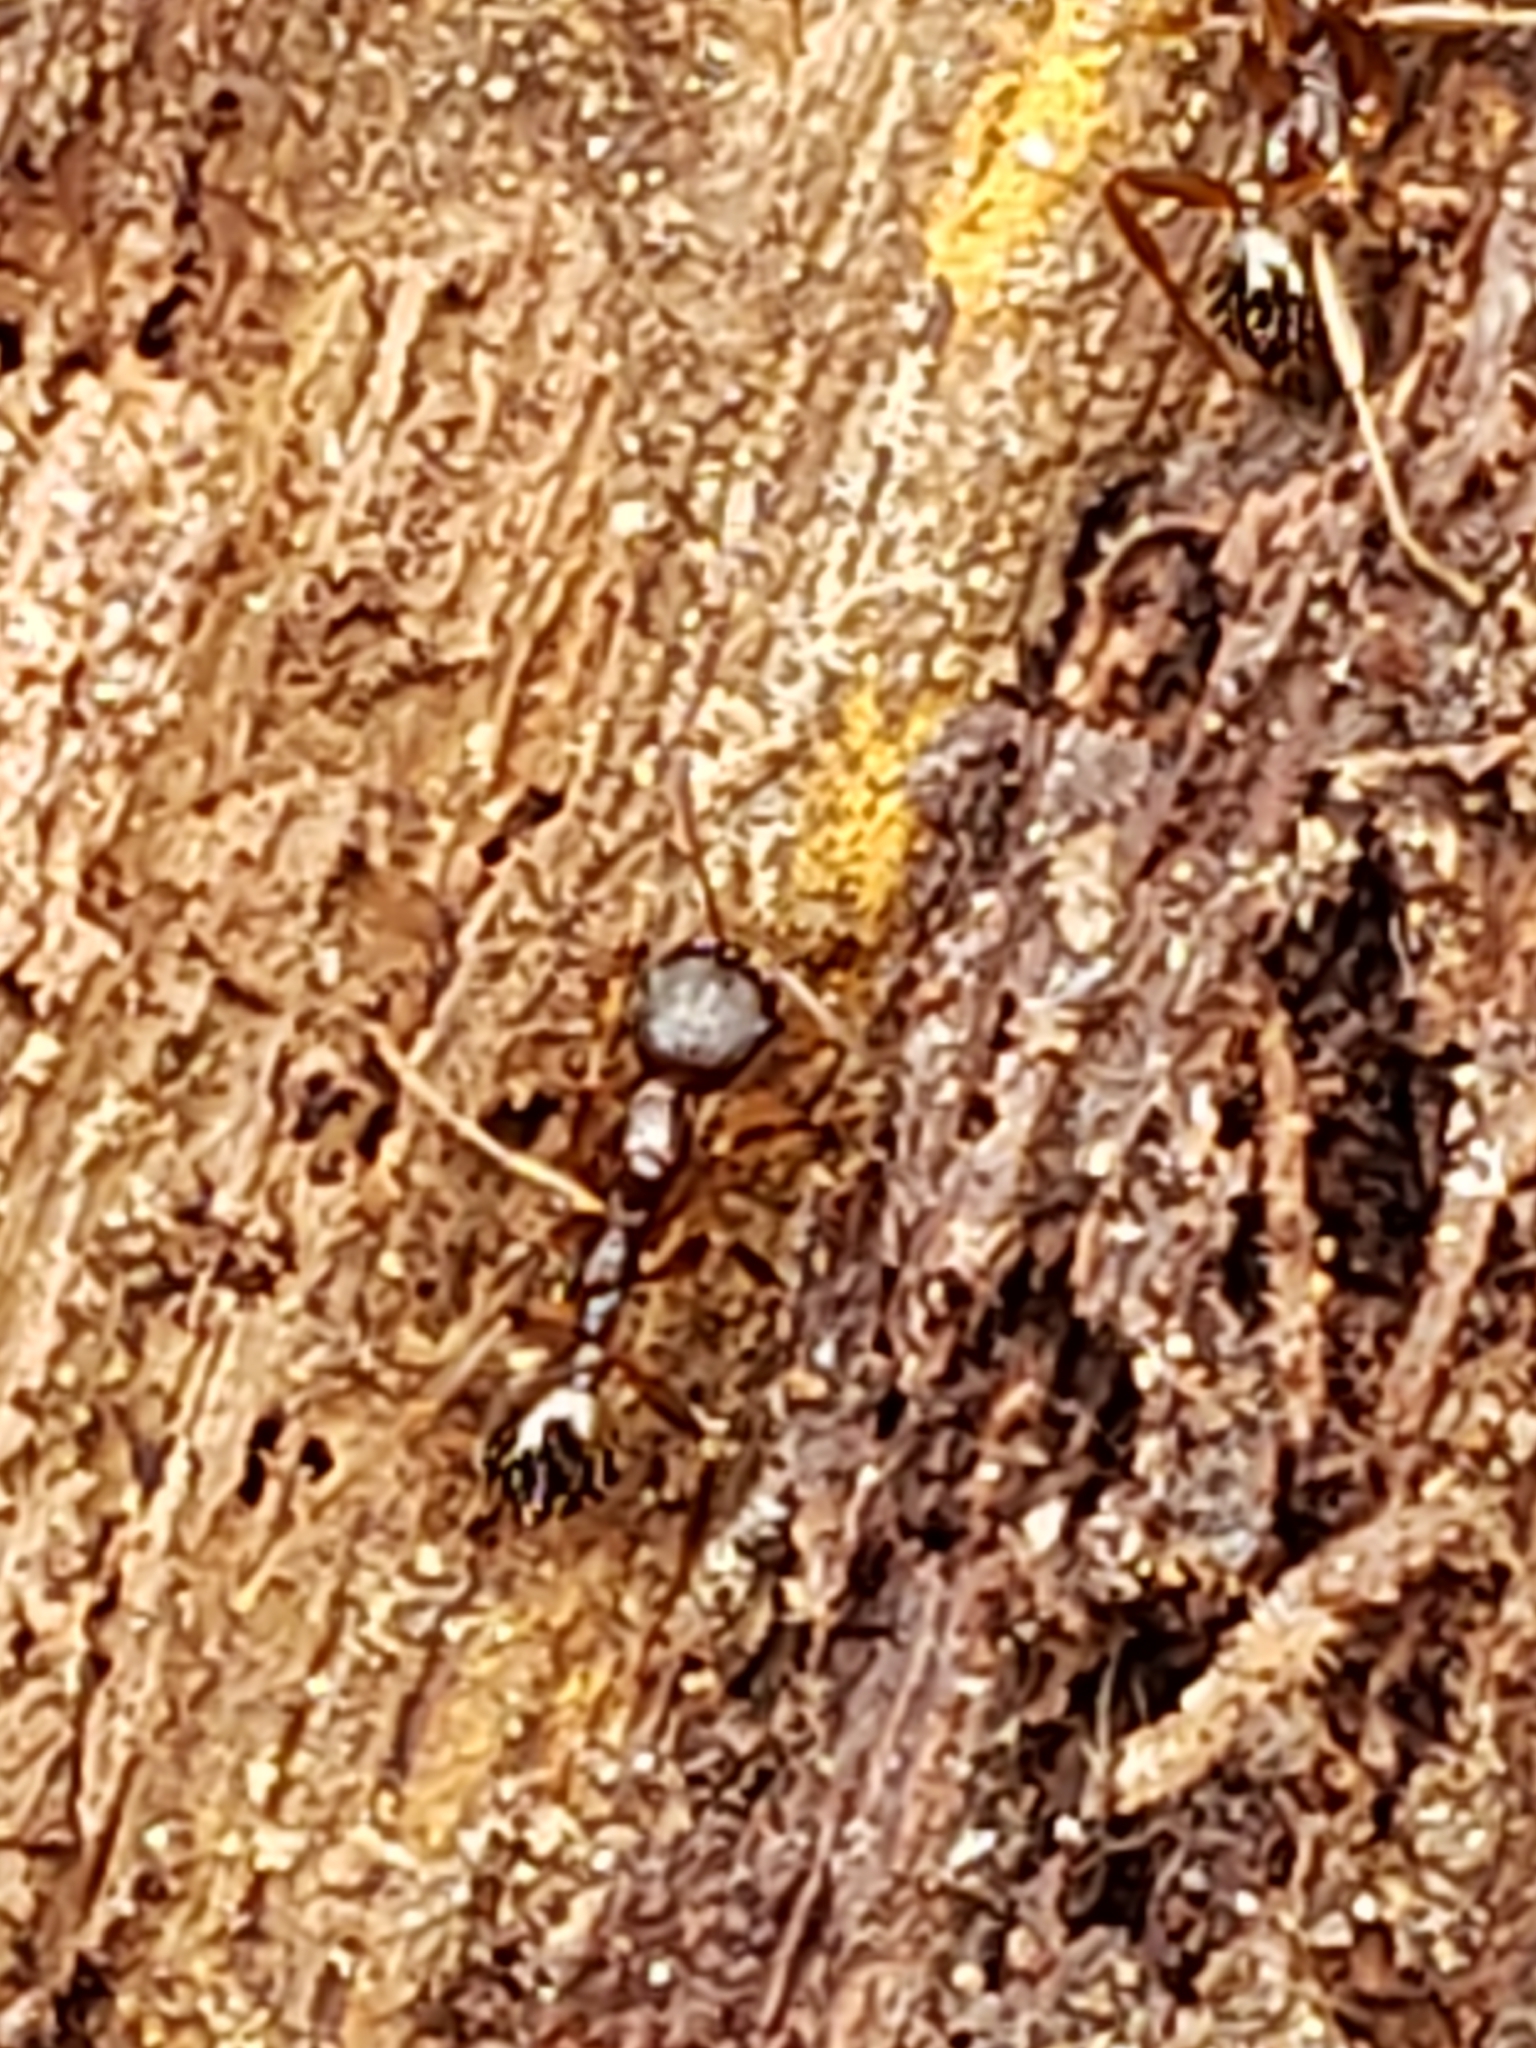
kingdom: Animalia
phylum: Arthropoda
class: Insecta
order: Hymenoptera
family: Formicidae
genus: Aphaenogaster
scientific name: Aphaenogaster rudis
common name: Winnow ant
